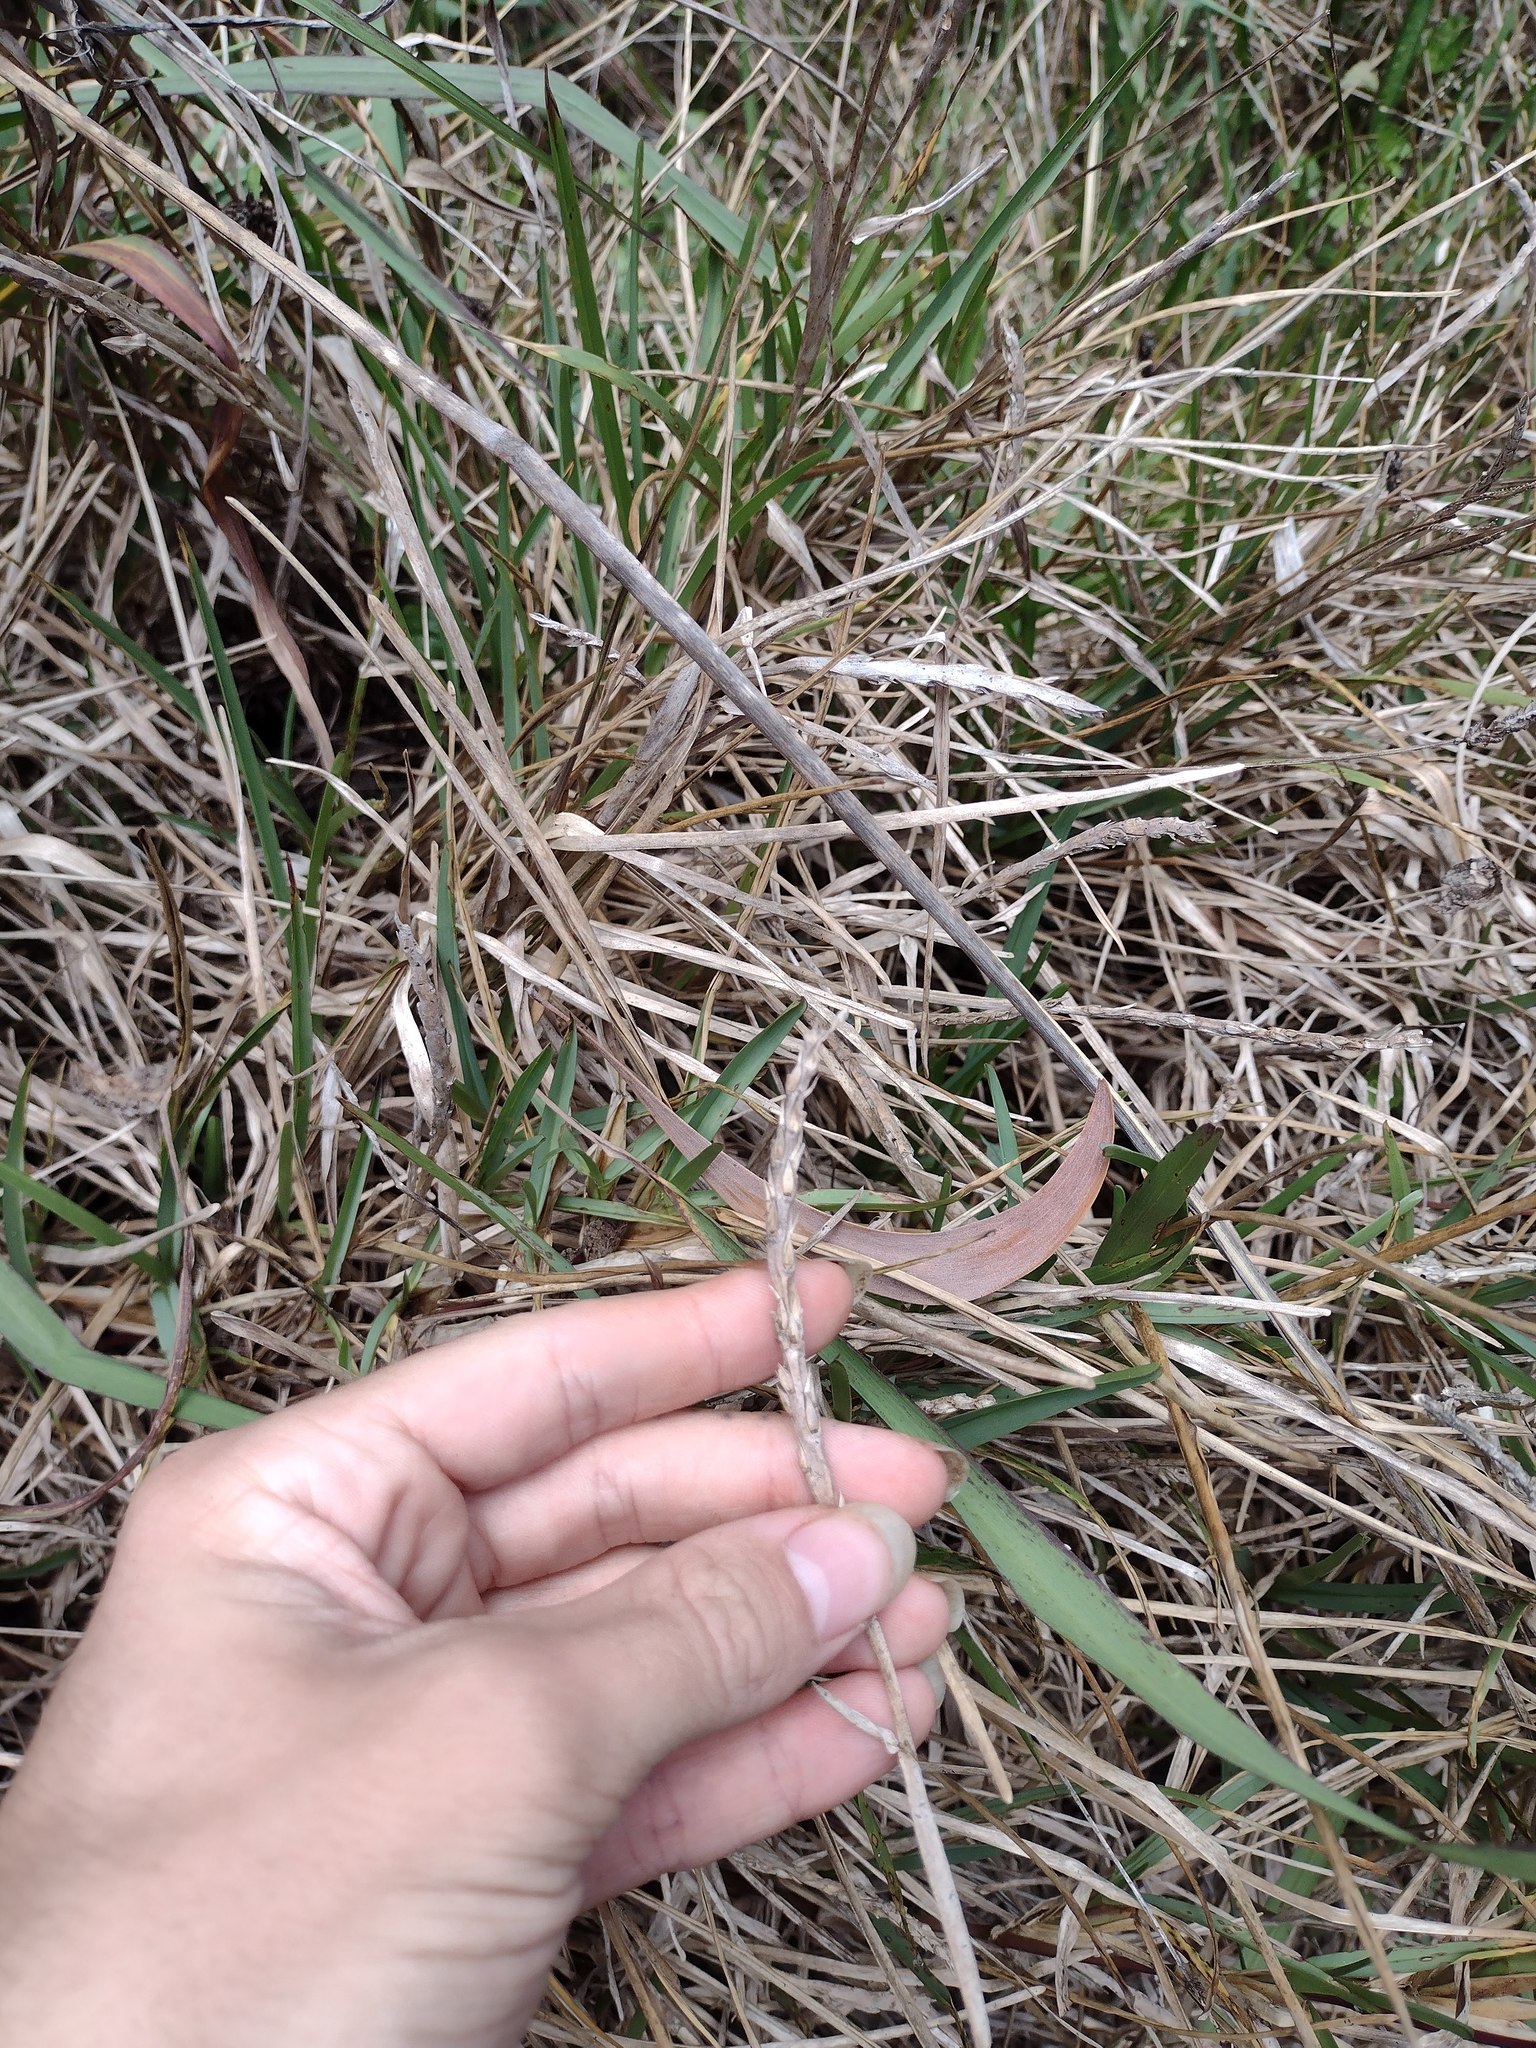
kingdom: Plantae
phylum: Tracheophyta
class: Liliopsida
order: Poales
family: Poaceae
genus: Stenotaphrum
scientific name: Stenotaphrum secundatum
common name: St. augustine grass
